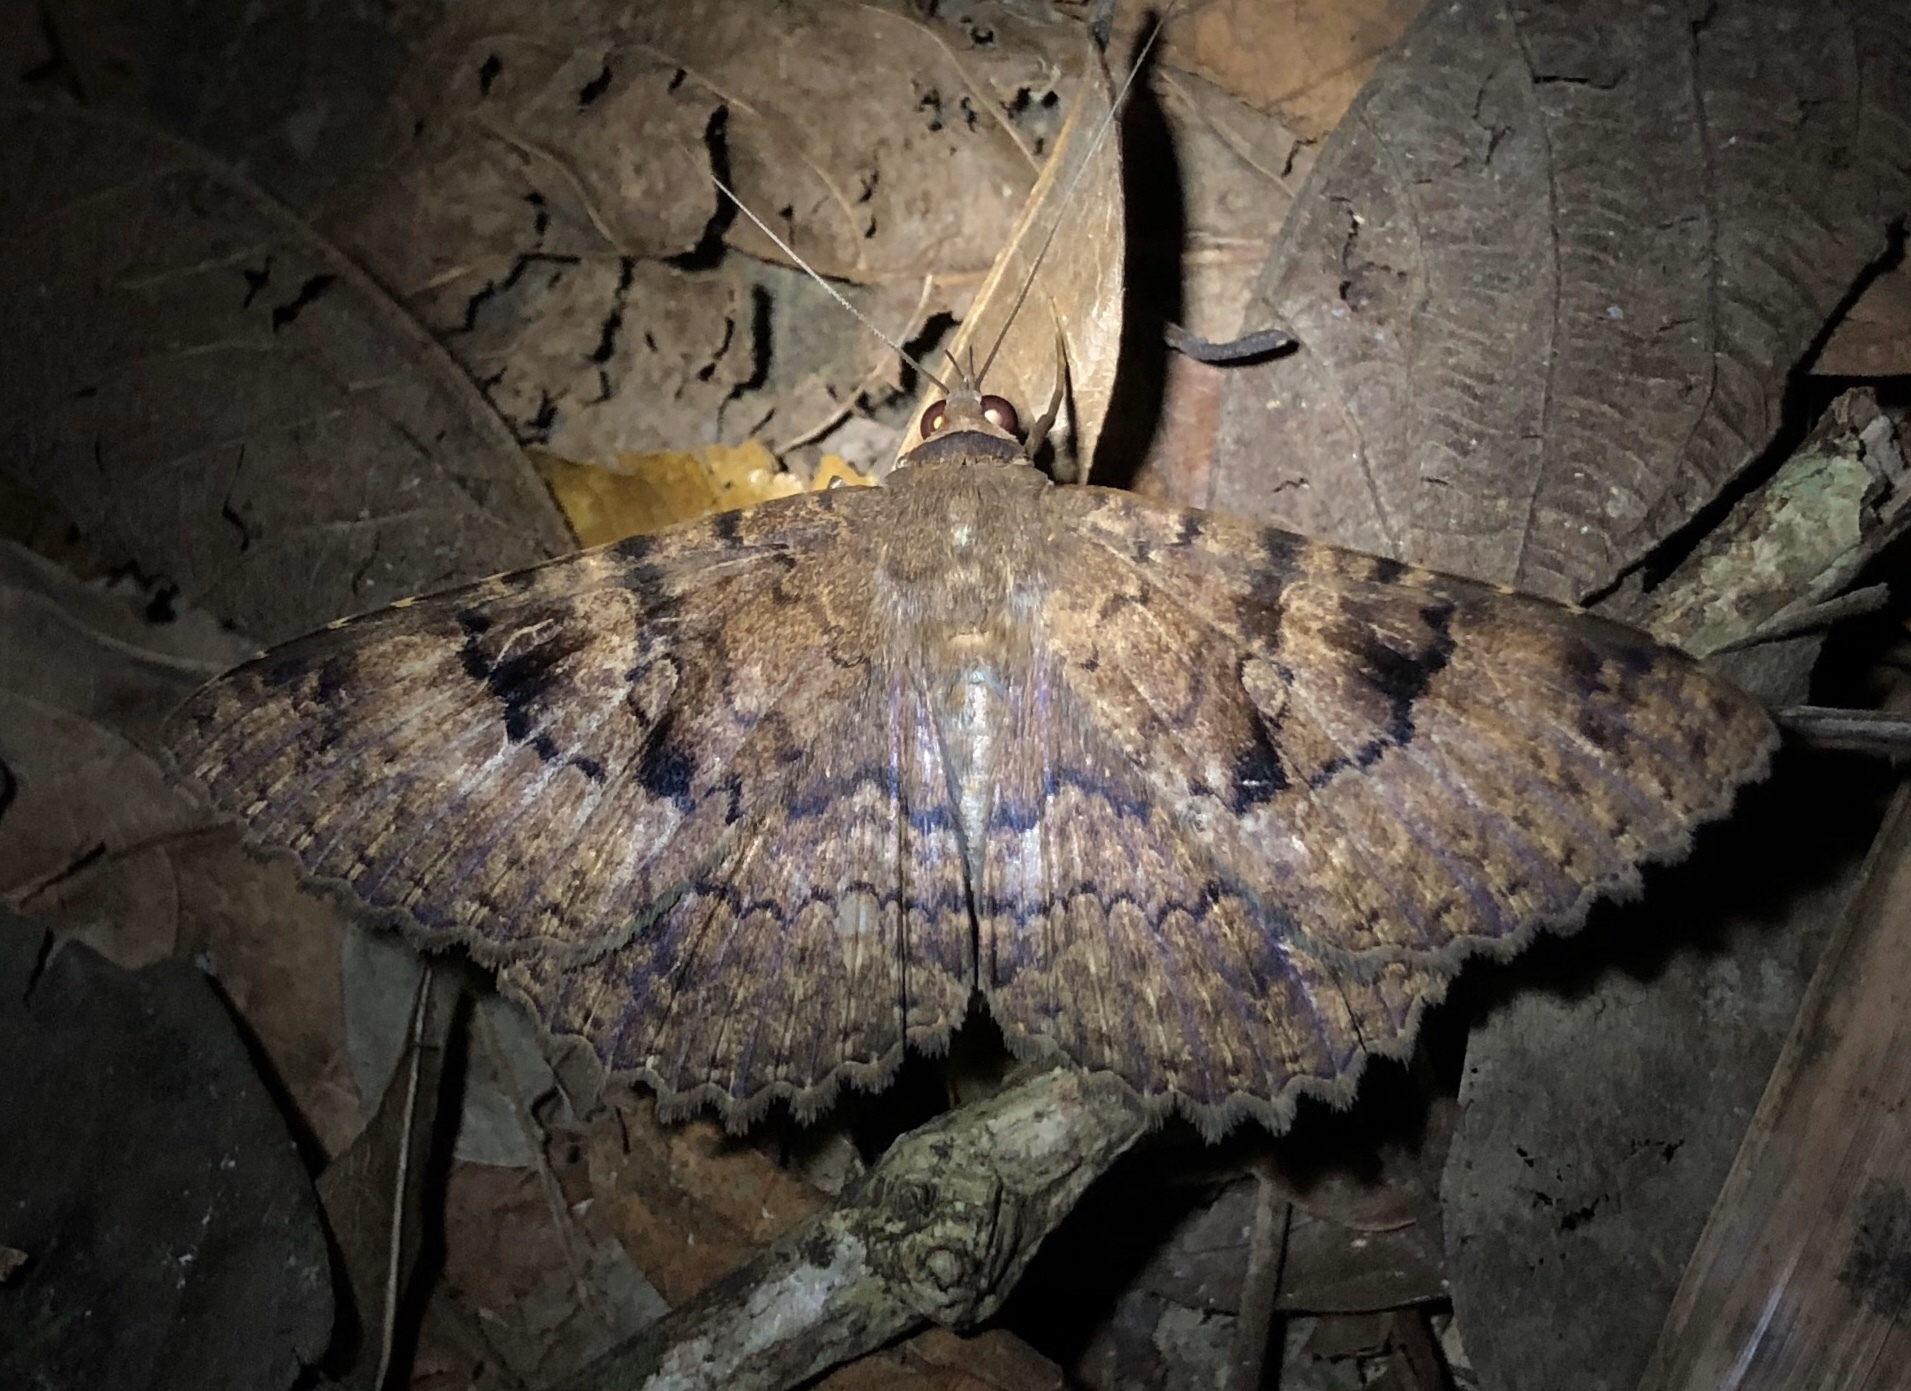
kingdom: Animalia
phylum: Arthropoda
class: Insecta
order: Lepidoptera
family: Erebidae
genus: Latebraria
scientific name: Latebraria amphipyroides
